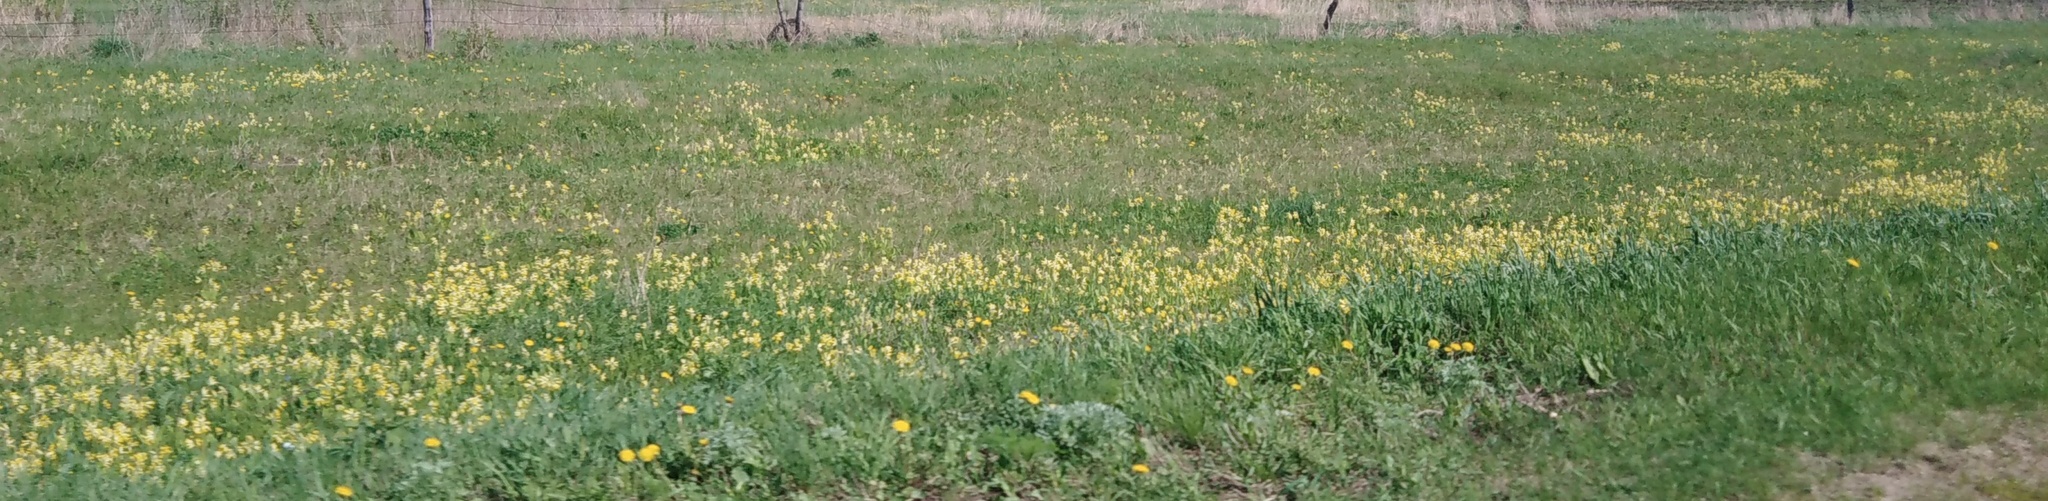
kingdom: Plantae
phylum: Tracheophyta
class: Magnoliopsida
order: Ericales
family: Primulaceae
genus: Primula
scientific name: Primula veris
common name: Cowslip
